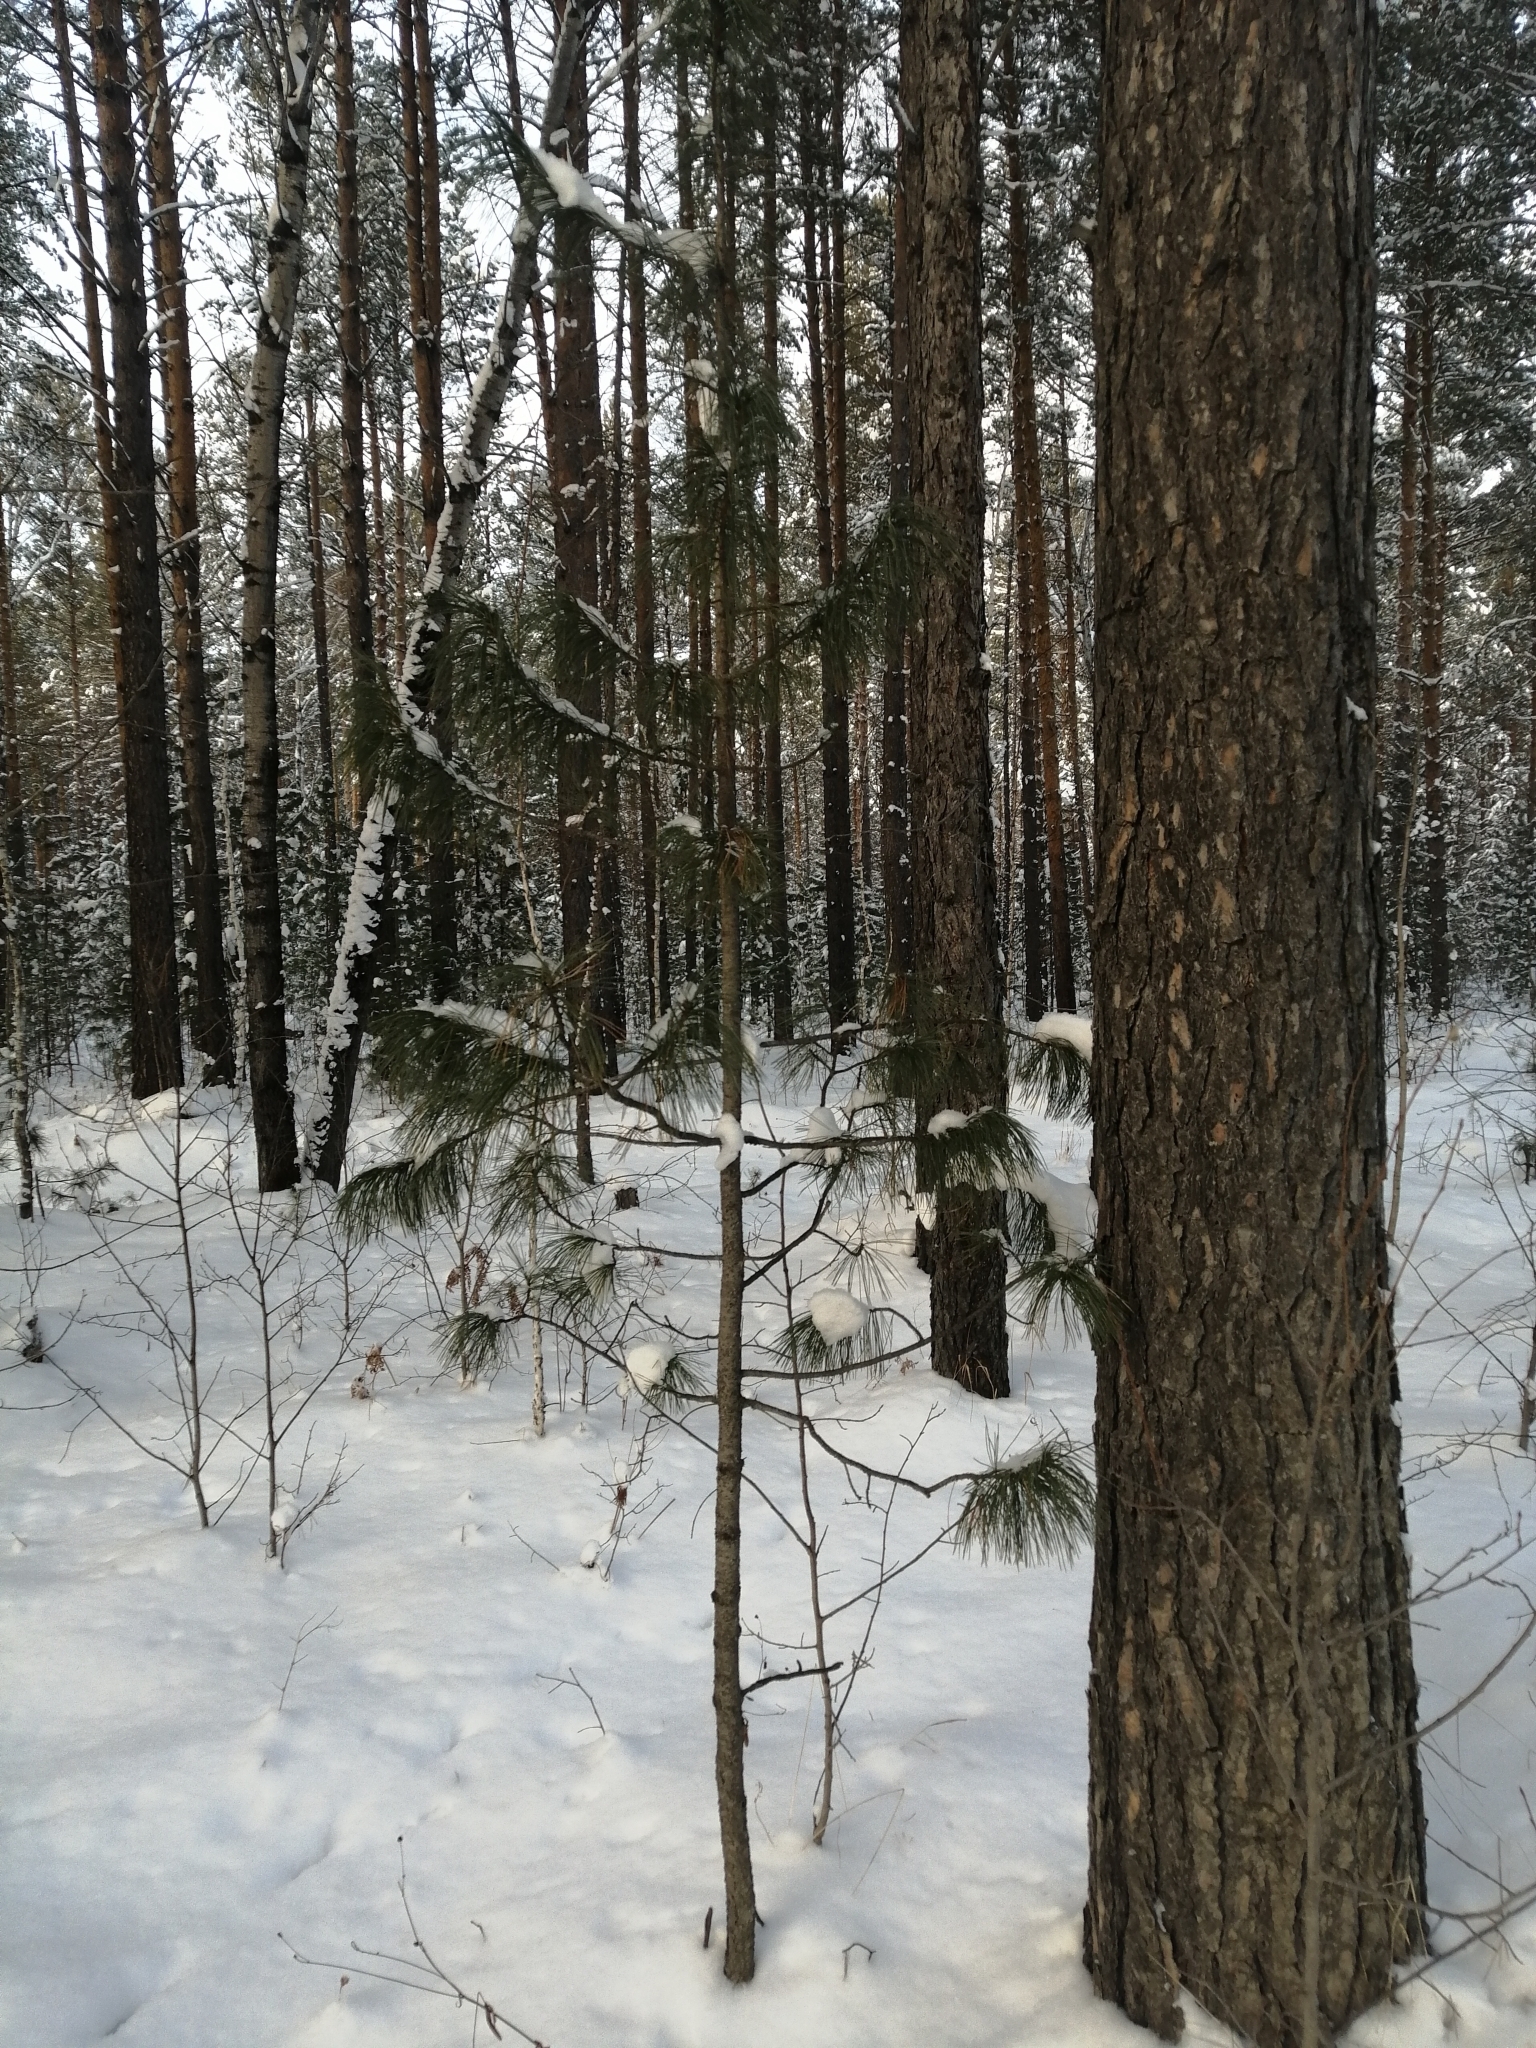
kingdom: Plantae
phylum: Tracheophyta
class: Pinopsida
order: Pinales
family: Pinaceae
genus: Pinus
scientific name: Pinus sibirica
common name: Siberian pine
